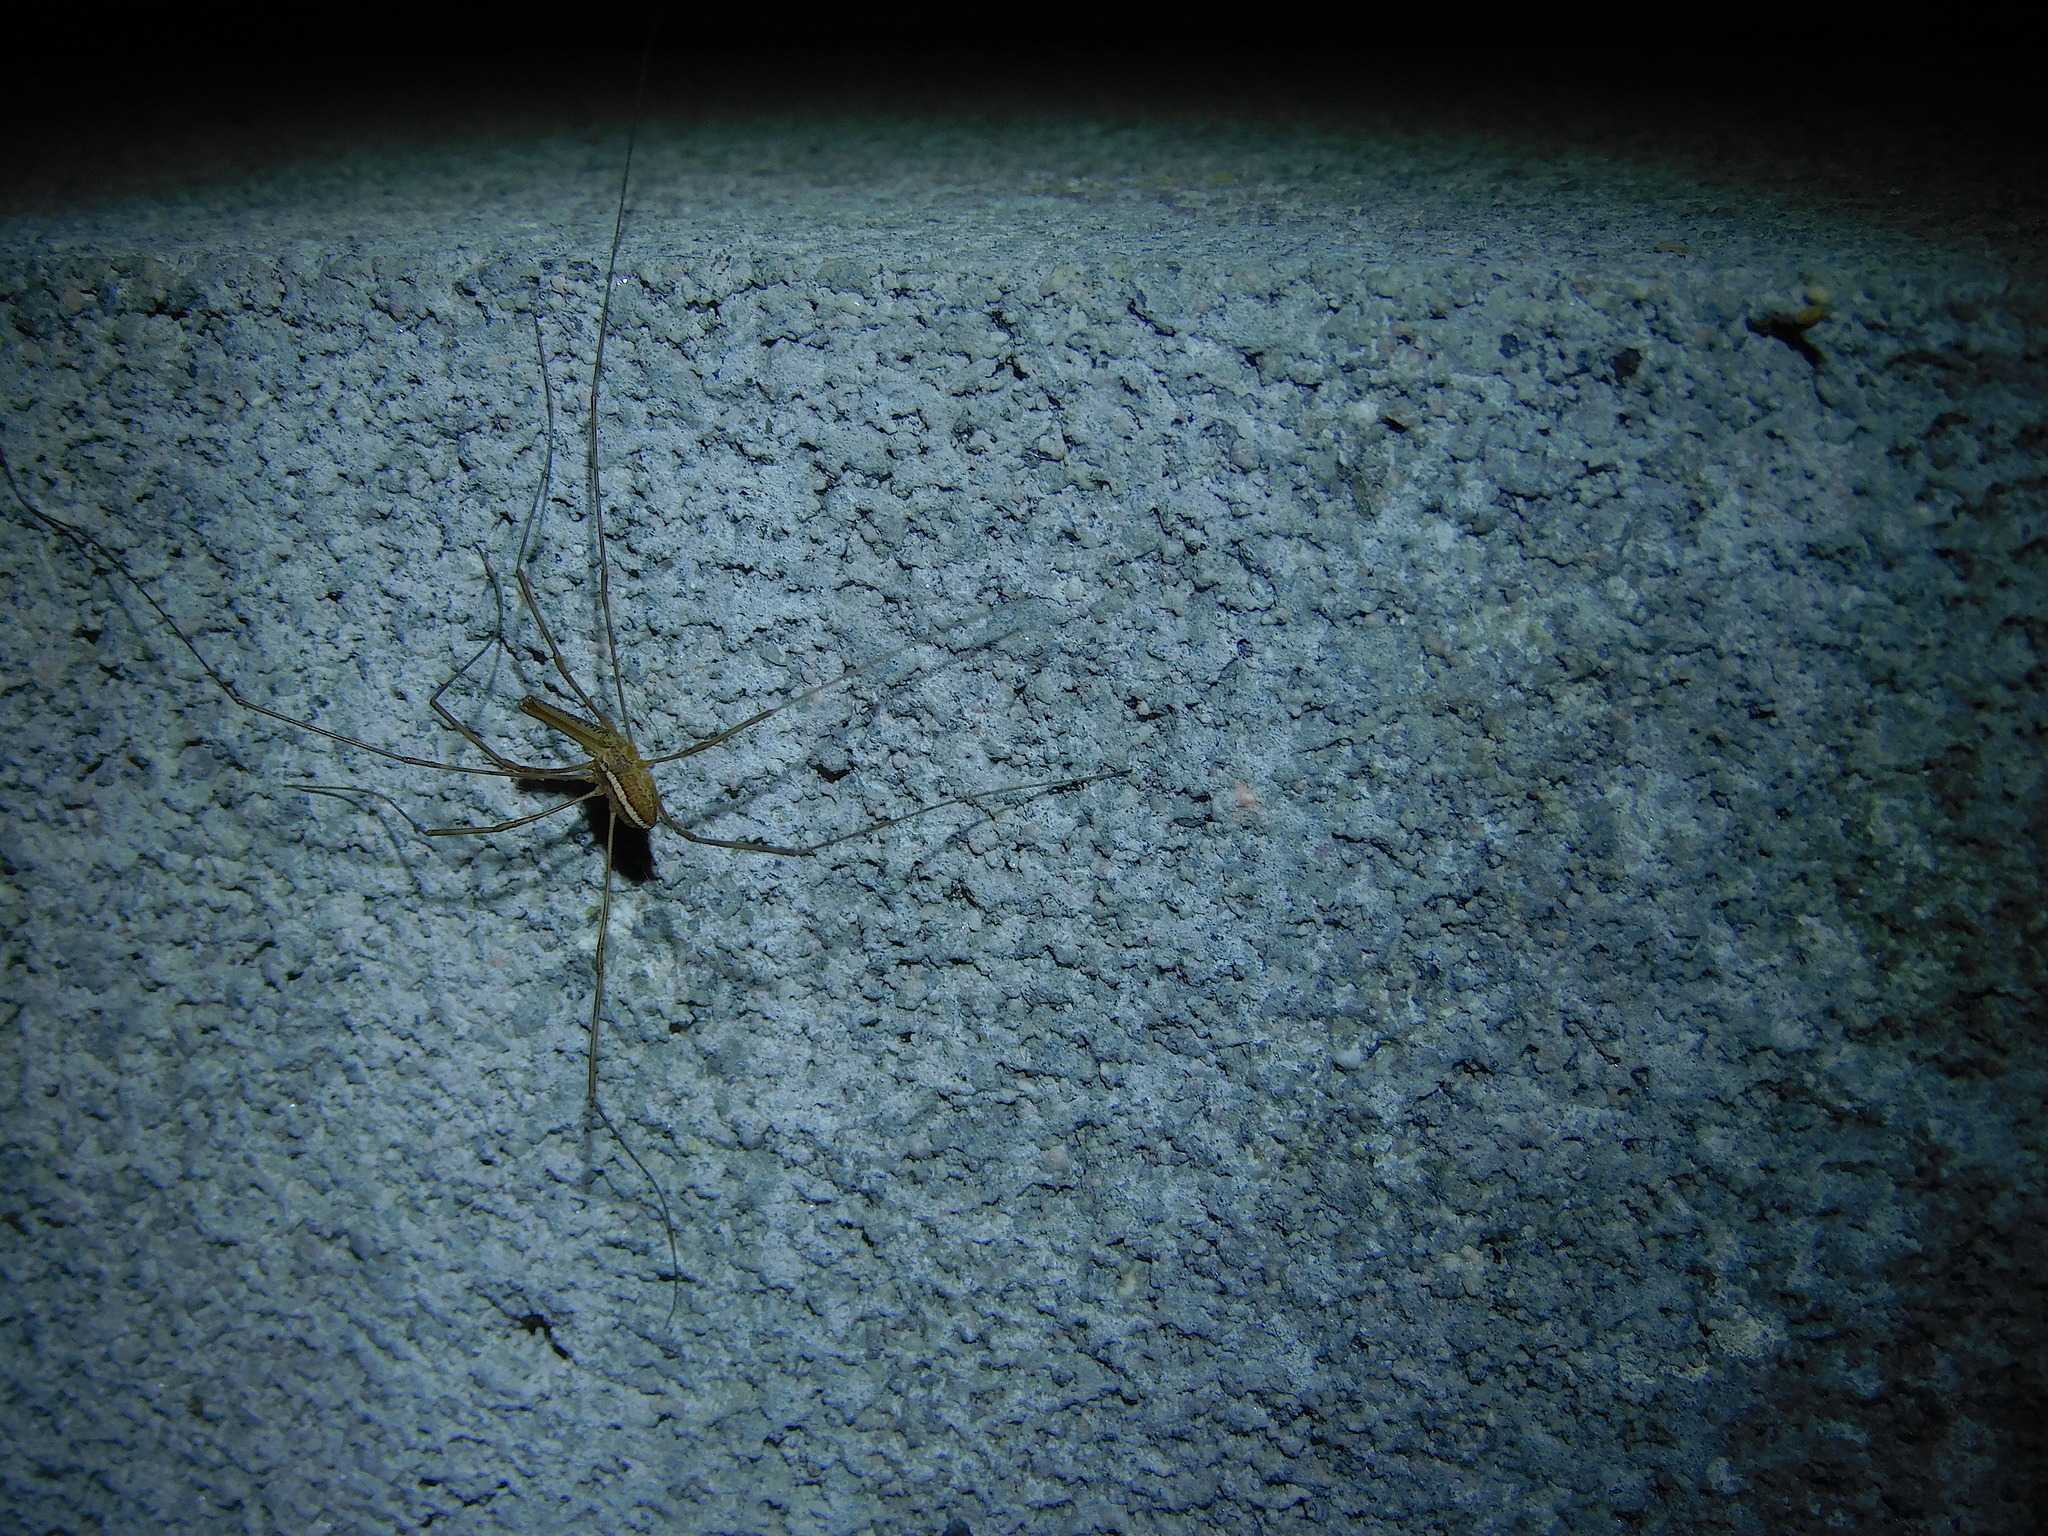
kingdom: Animalia
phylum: Arthropoda
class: Arachnida
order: Opiliones
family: Neopilionidae
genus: Megalopsalis
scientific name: Megalopsalis tasmanica
